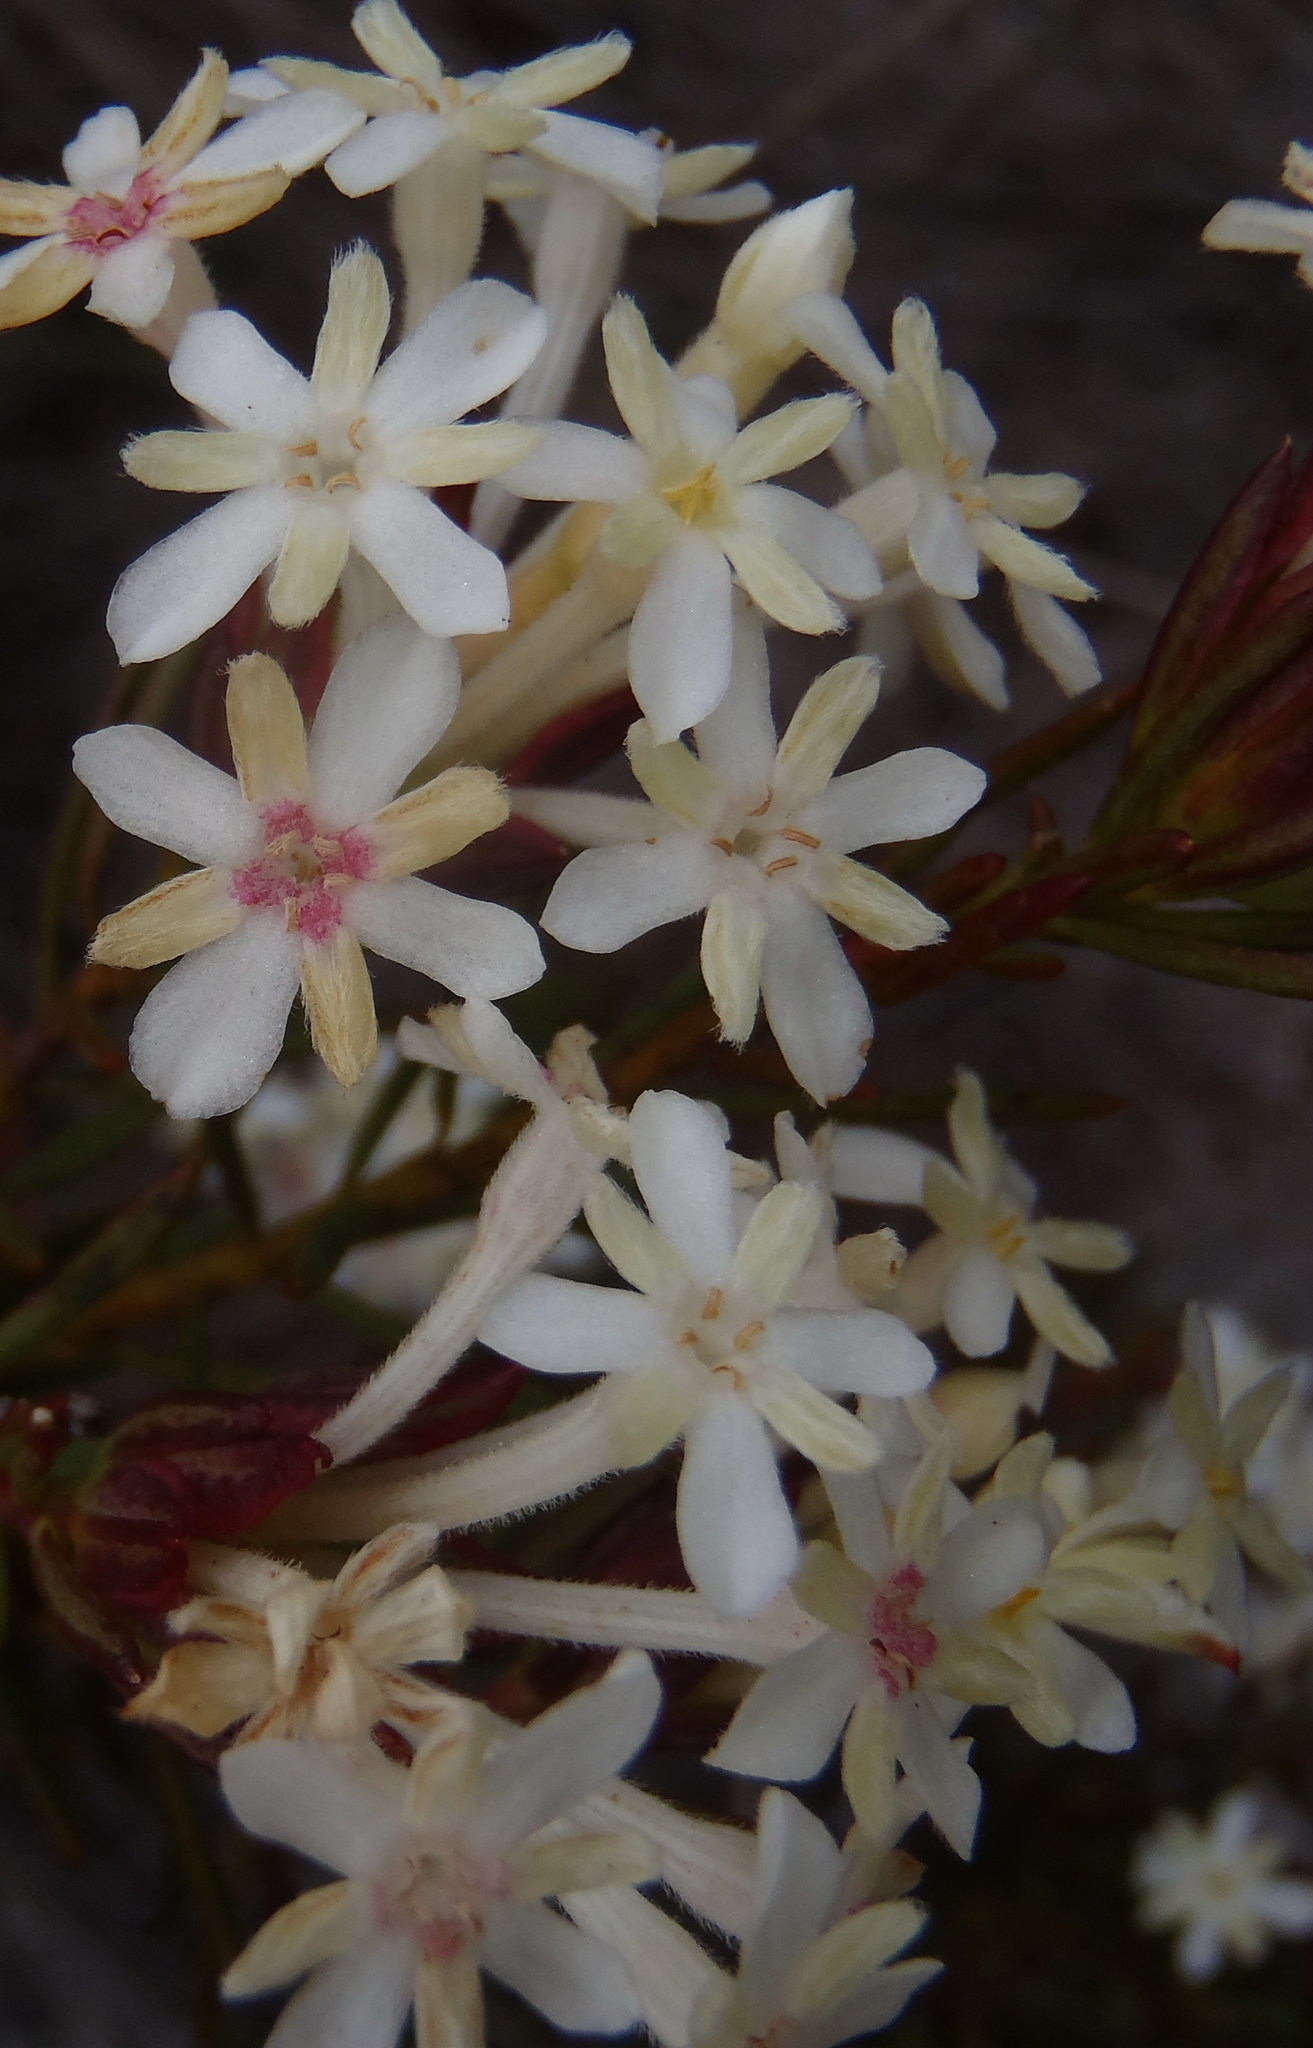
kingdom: Plantae
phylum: Tracheophyta
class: Magnoliopsida
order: Malvales
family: Thymelaeaceae
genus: Gnidia
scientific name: Gnidia pinifolia
